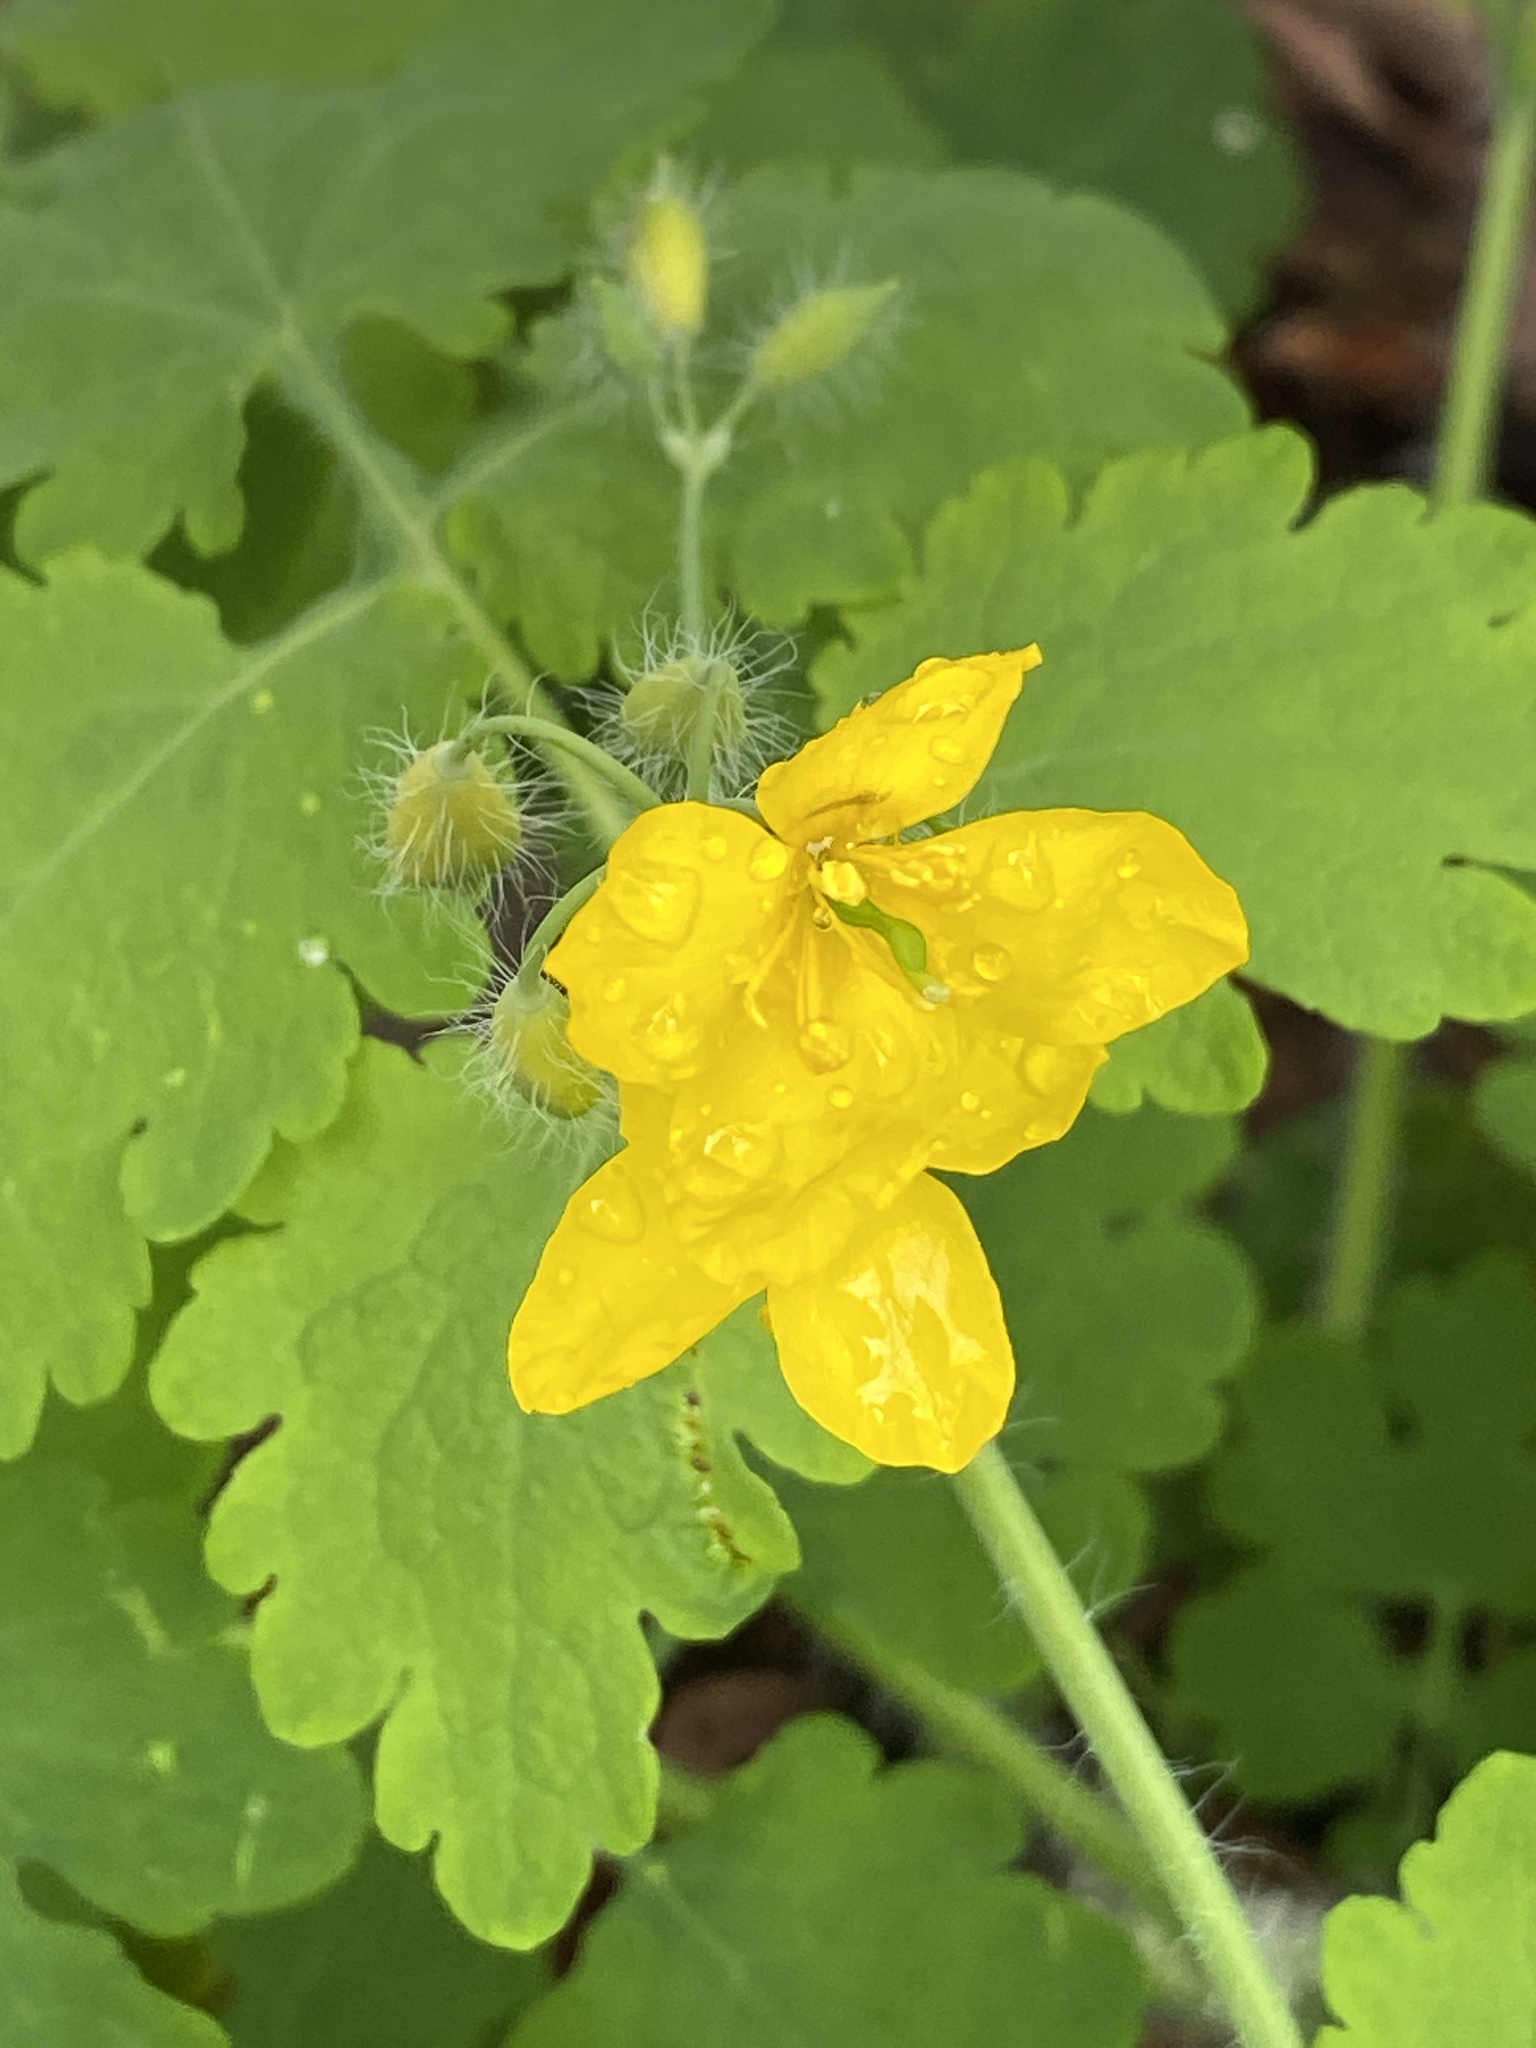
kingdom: Plantae
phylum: Tracheophyta
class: Magnoliopsida
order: Ranunculales
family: Papaveraceae
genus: Chelidonium
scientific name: Chelidonium majus
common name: Greater celandine
